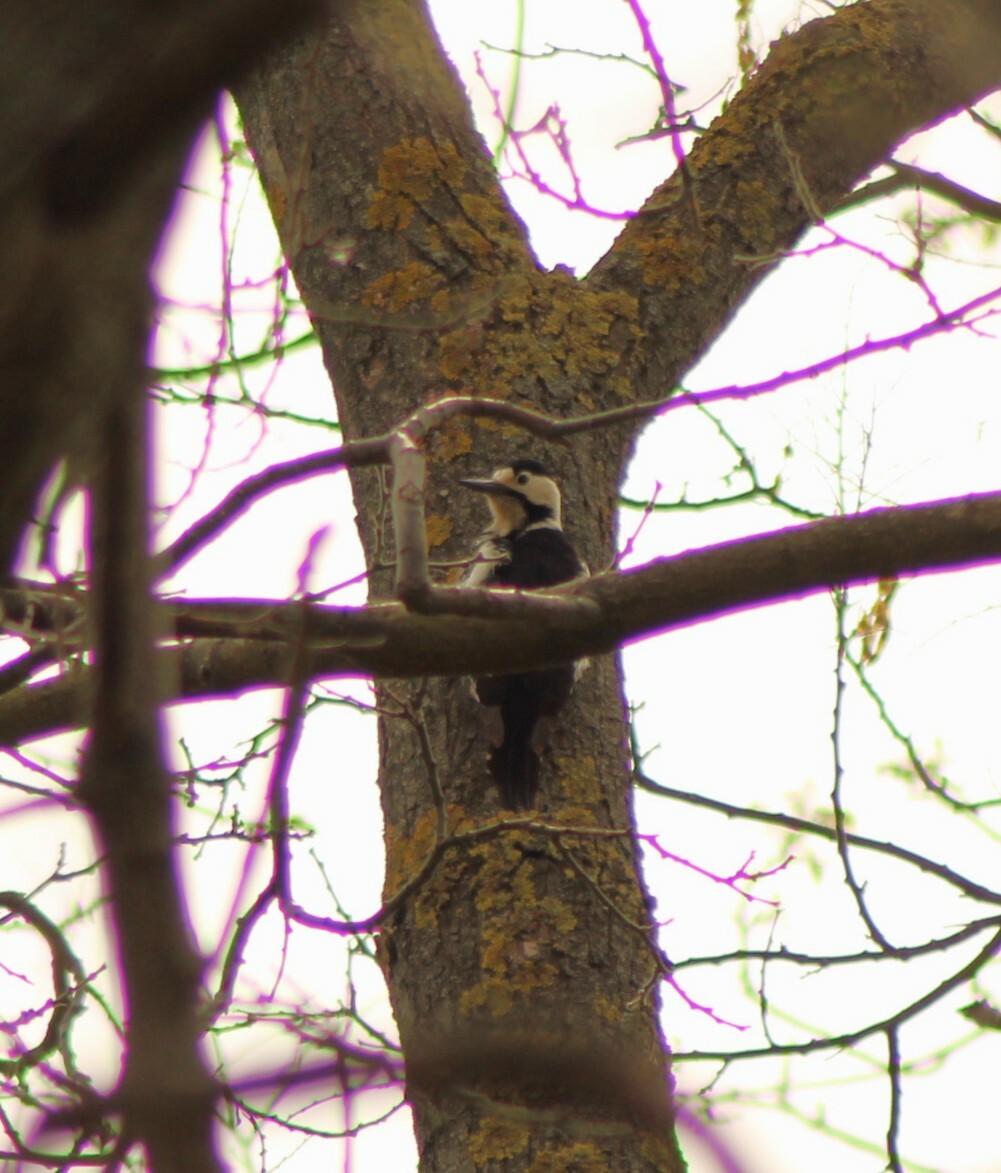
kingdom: Animalia
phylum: Chordata
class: Aves
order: Piciformes
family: Picidae
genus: Dendrocopos
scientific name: Dendrocopos syriacus
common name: Syrian woodpecker
